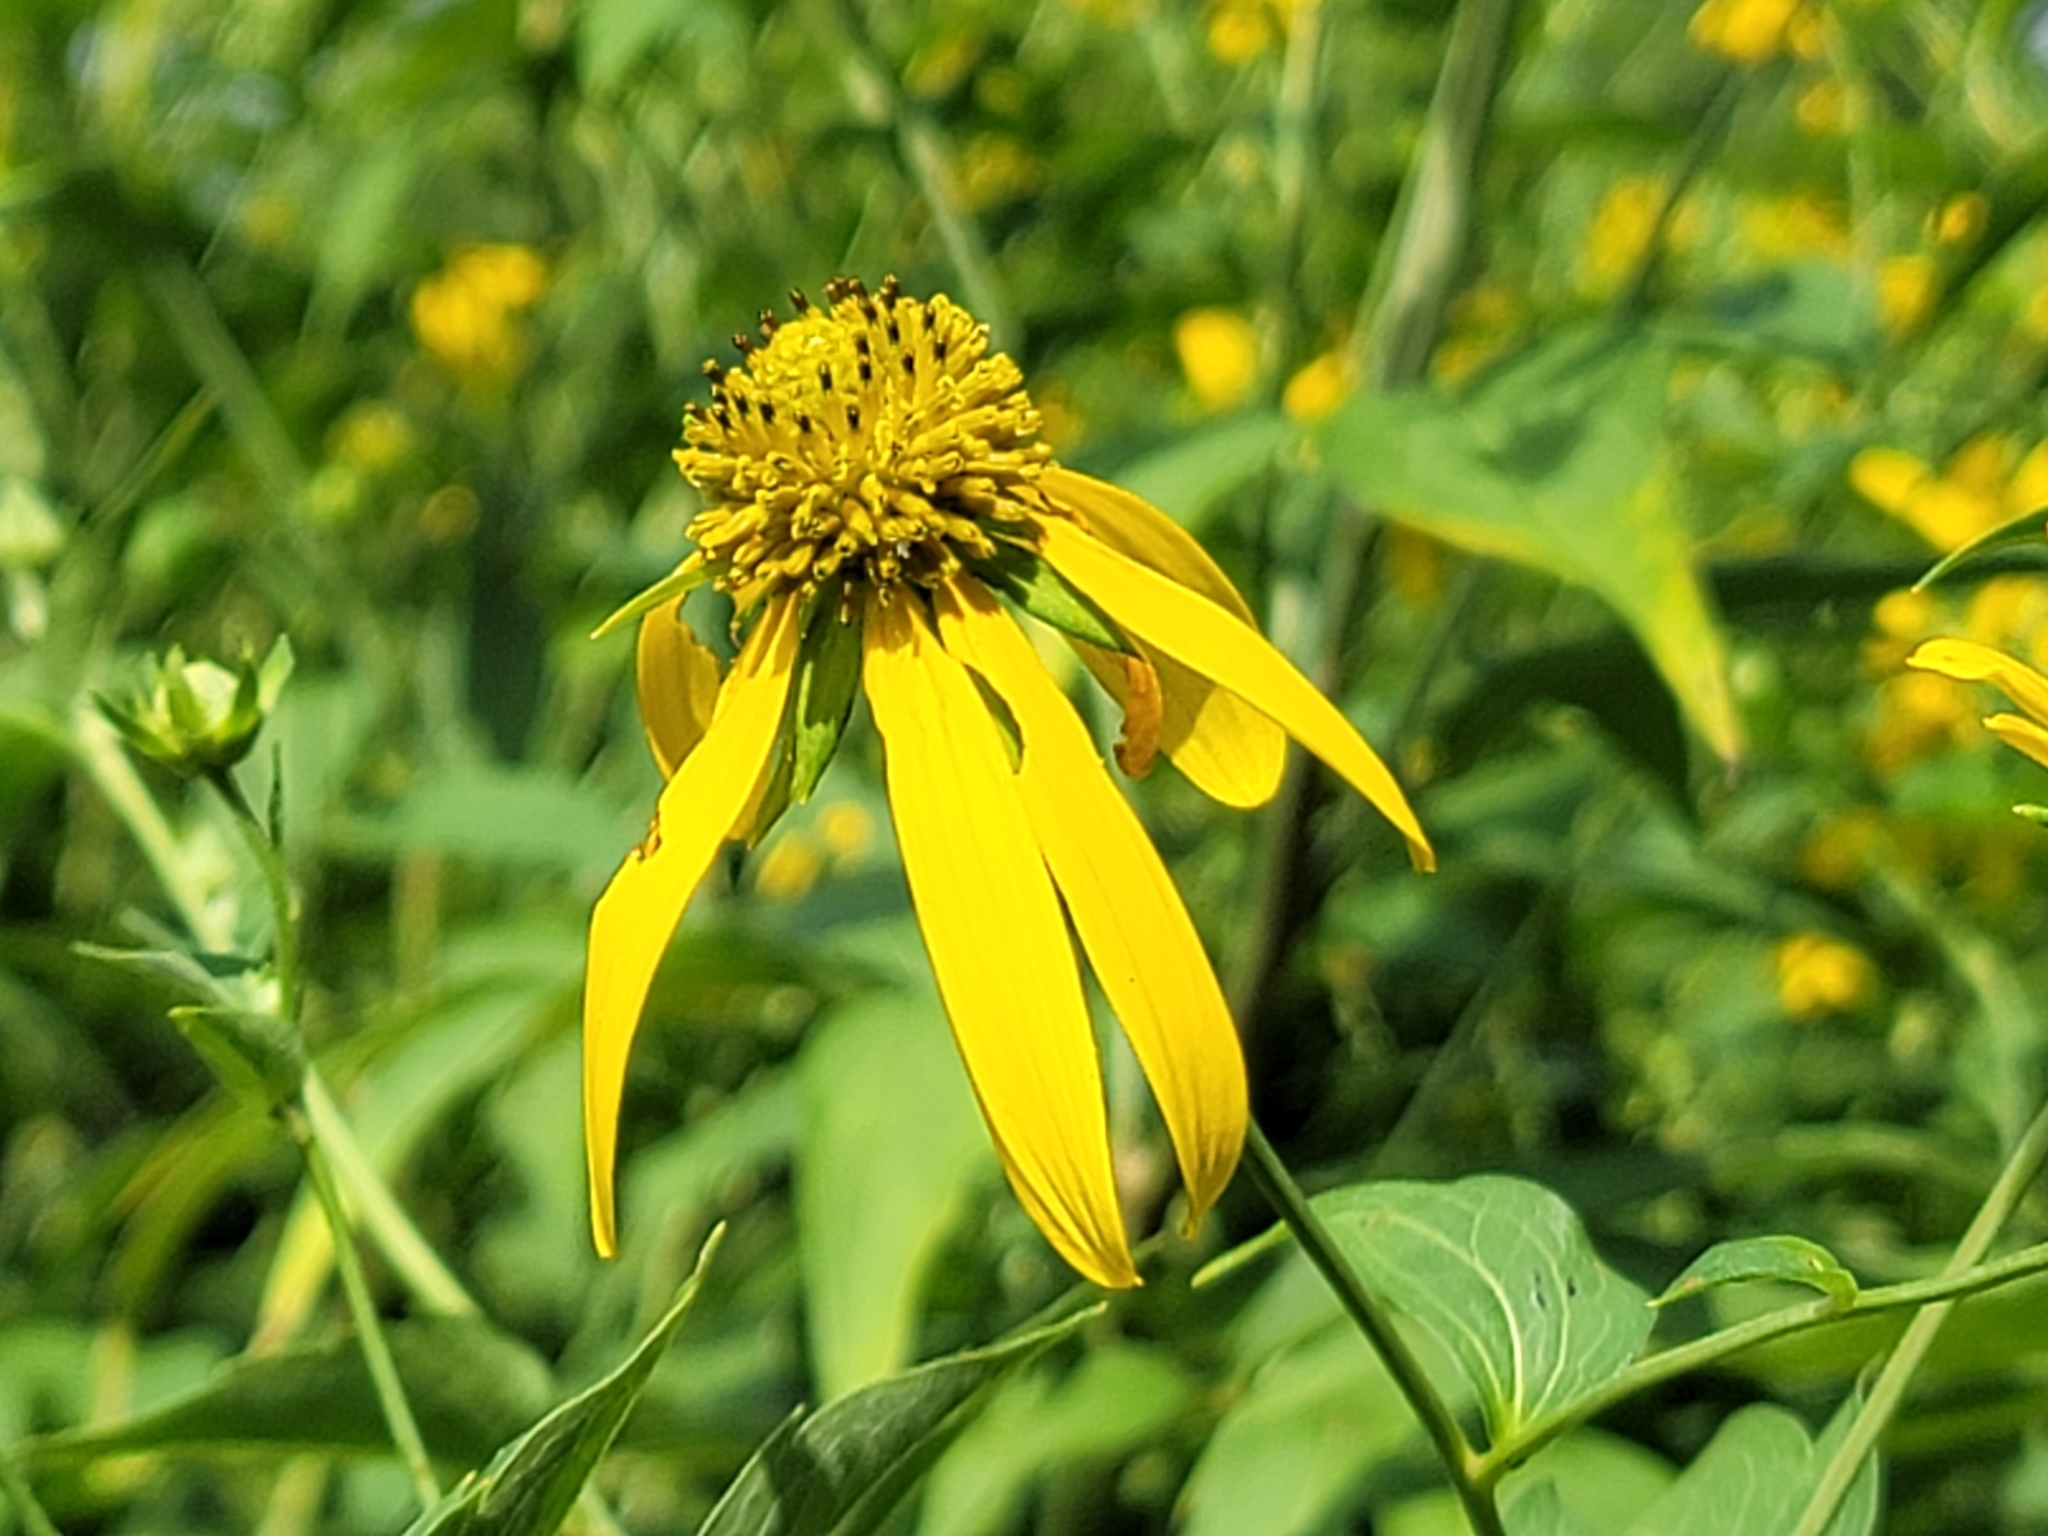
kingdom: Plantae
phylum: Tracheophyta
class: Magnoliopsida
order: Asterales
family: Asteraceae
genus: Rudbeckia
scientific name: Rudbeckia laciniata
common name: Coneflower
